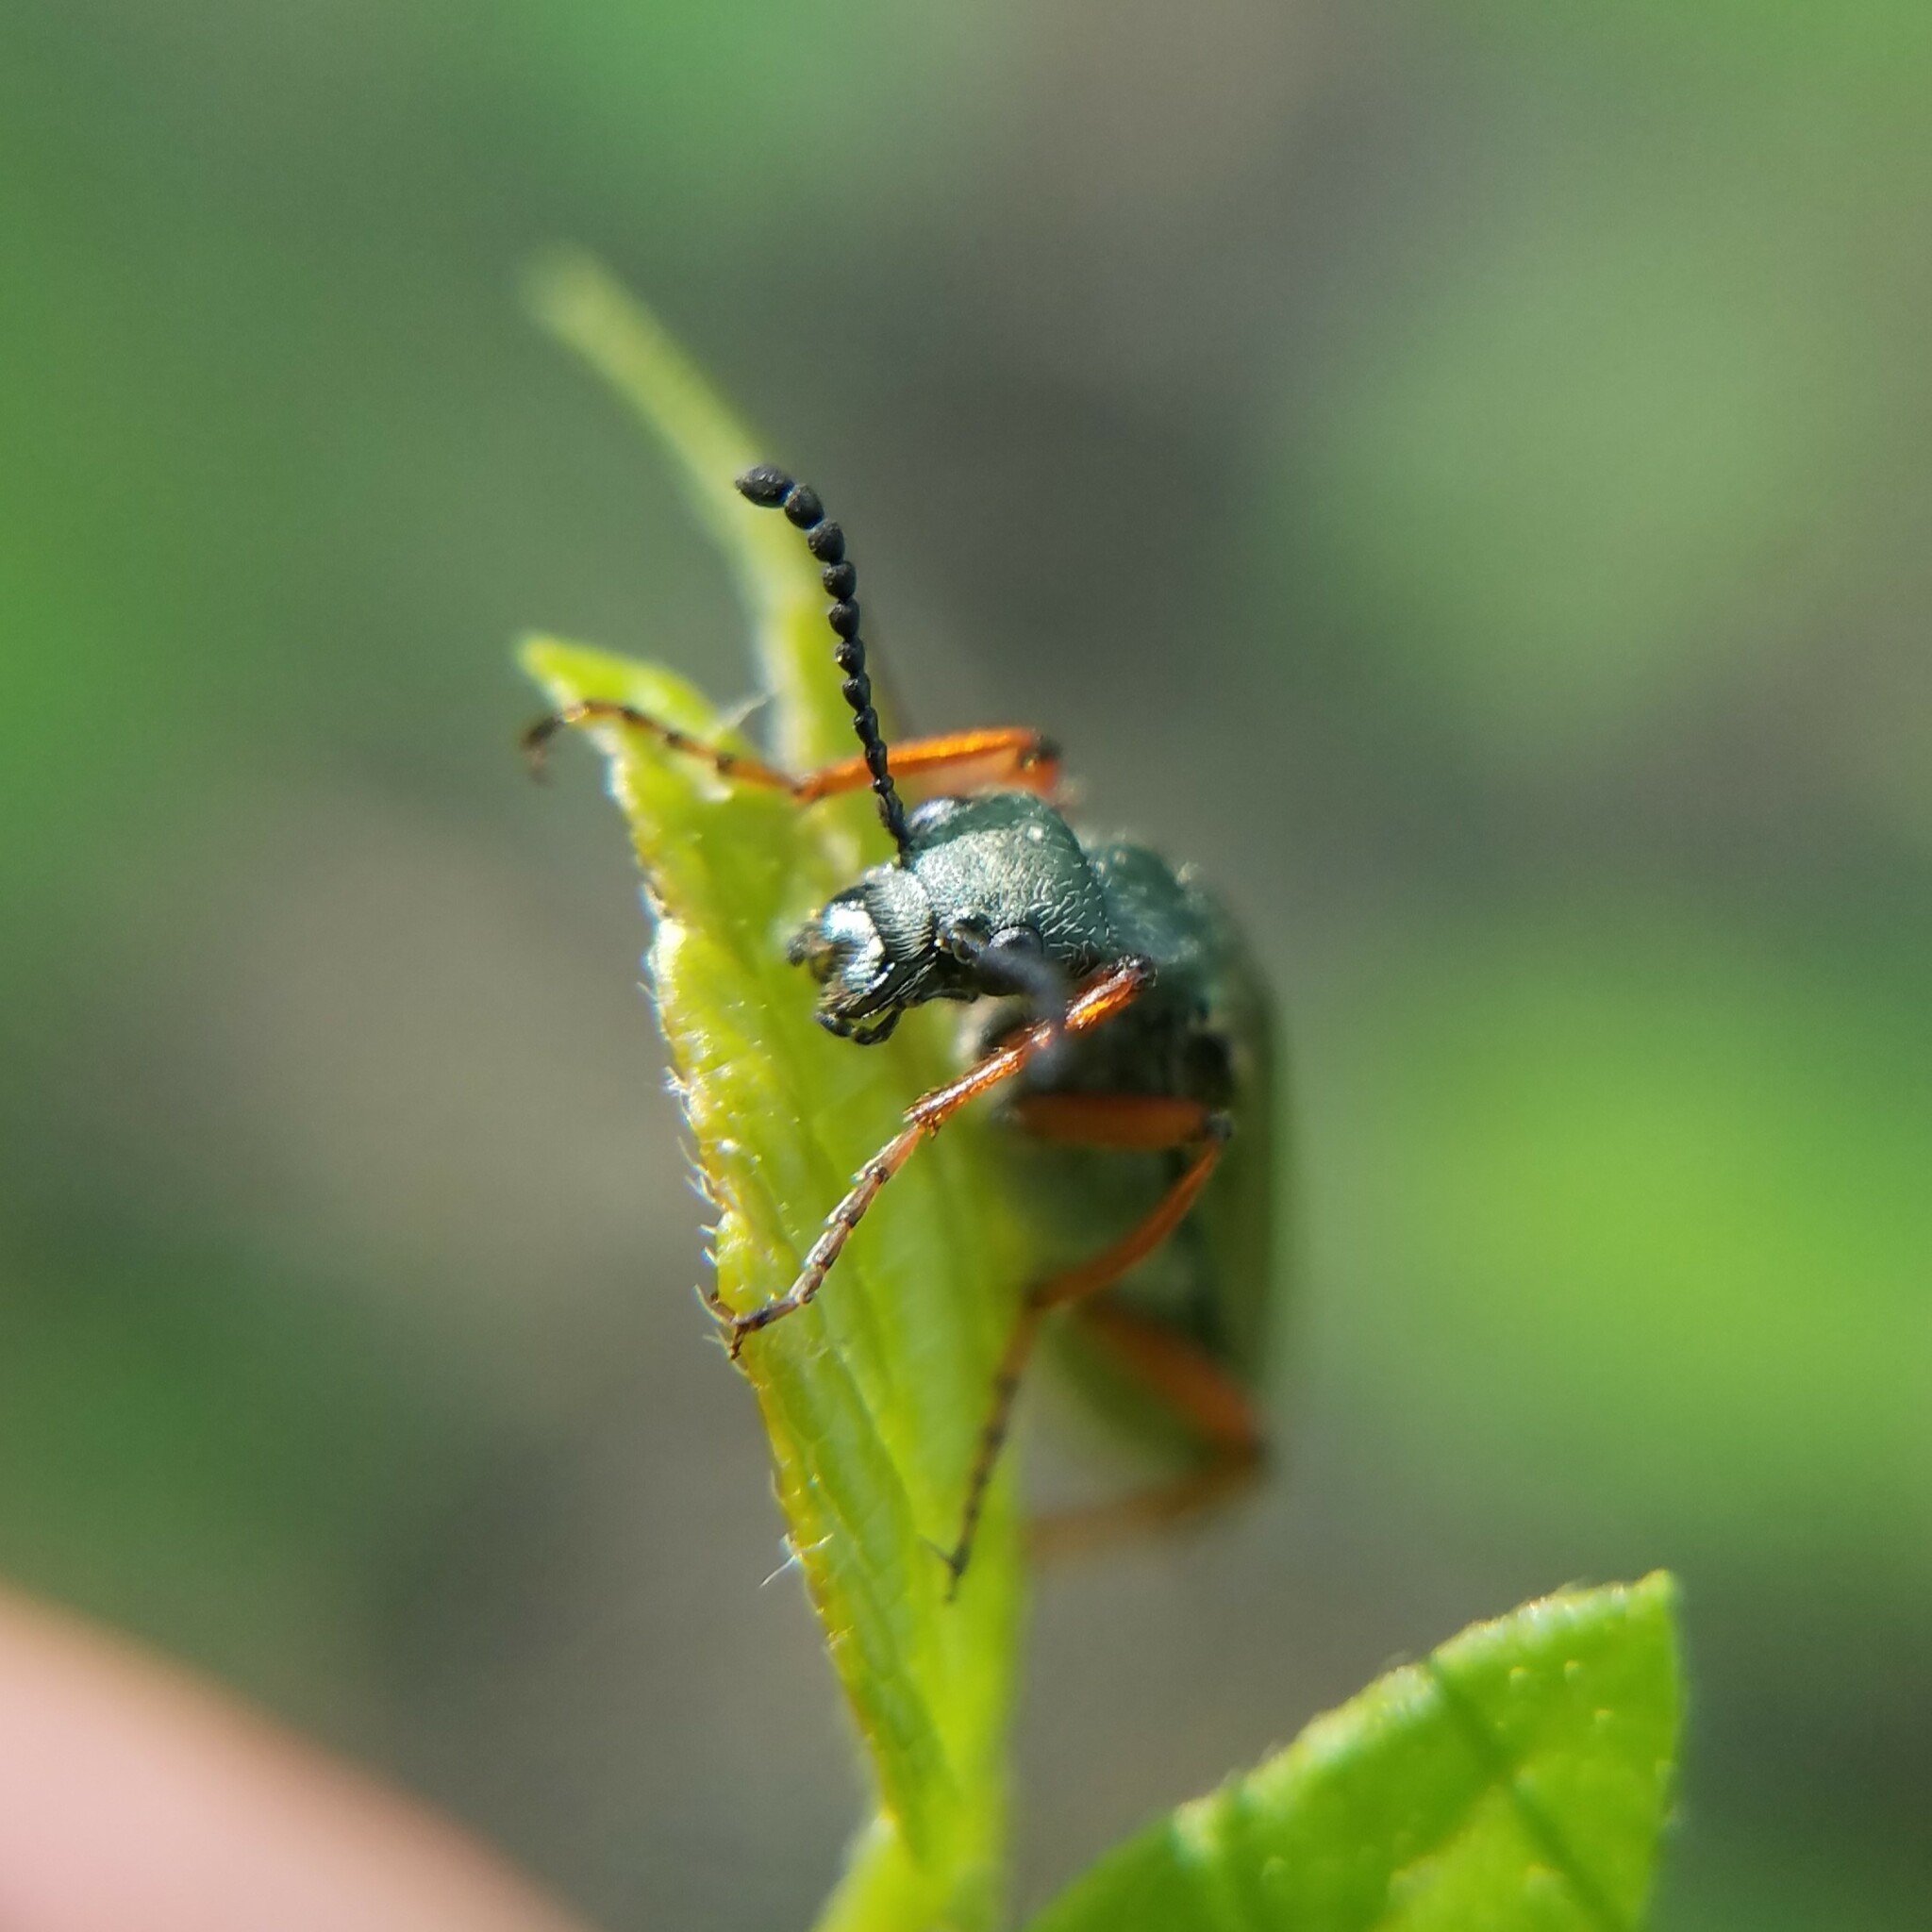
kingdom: Animalia
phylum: Arthropoda
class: Insecta
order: Coleoptera
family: Meloidae
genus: Lytta
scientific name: Lytta aenea
